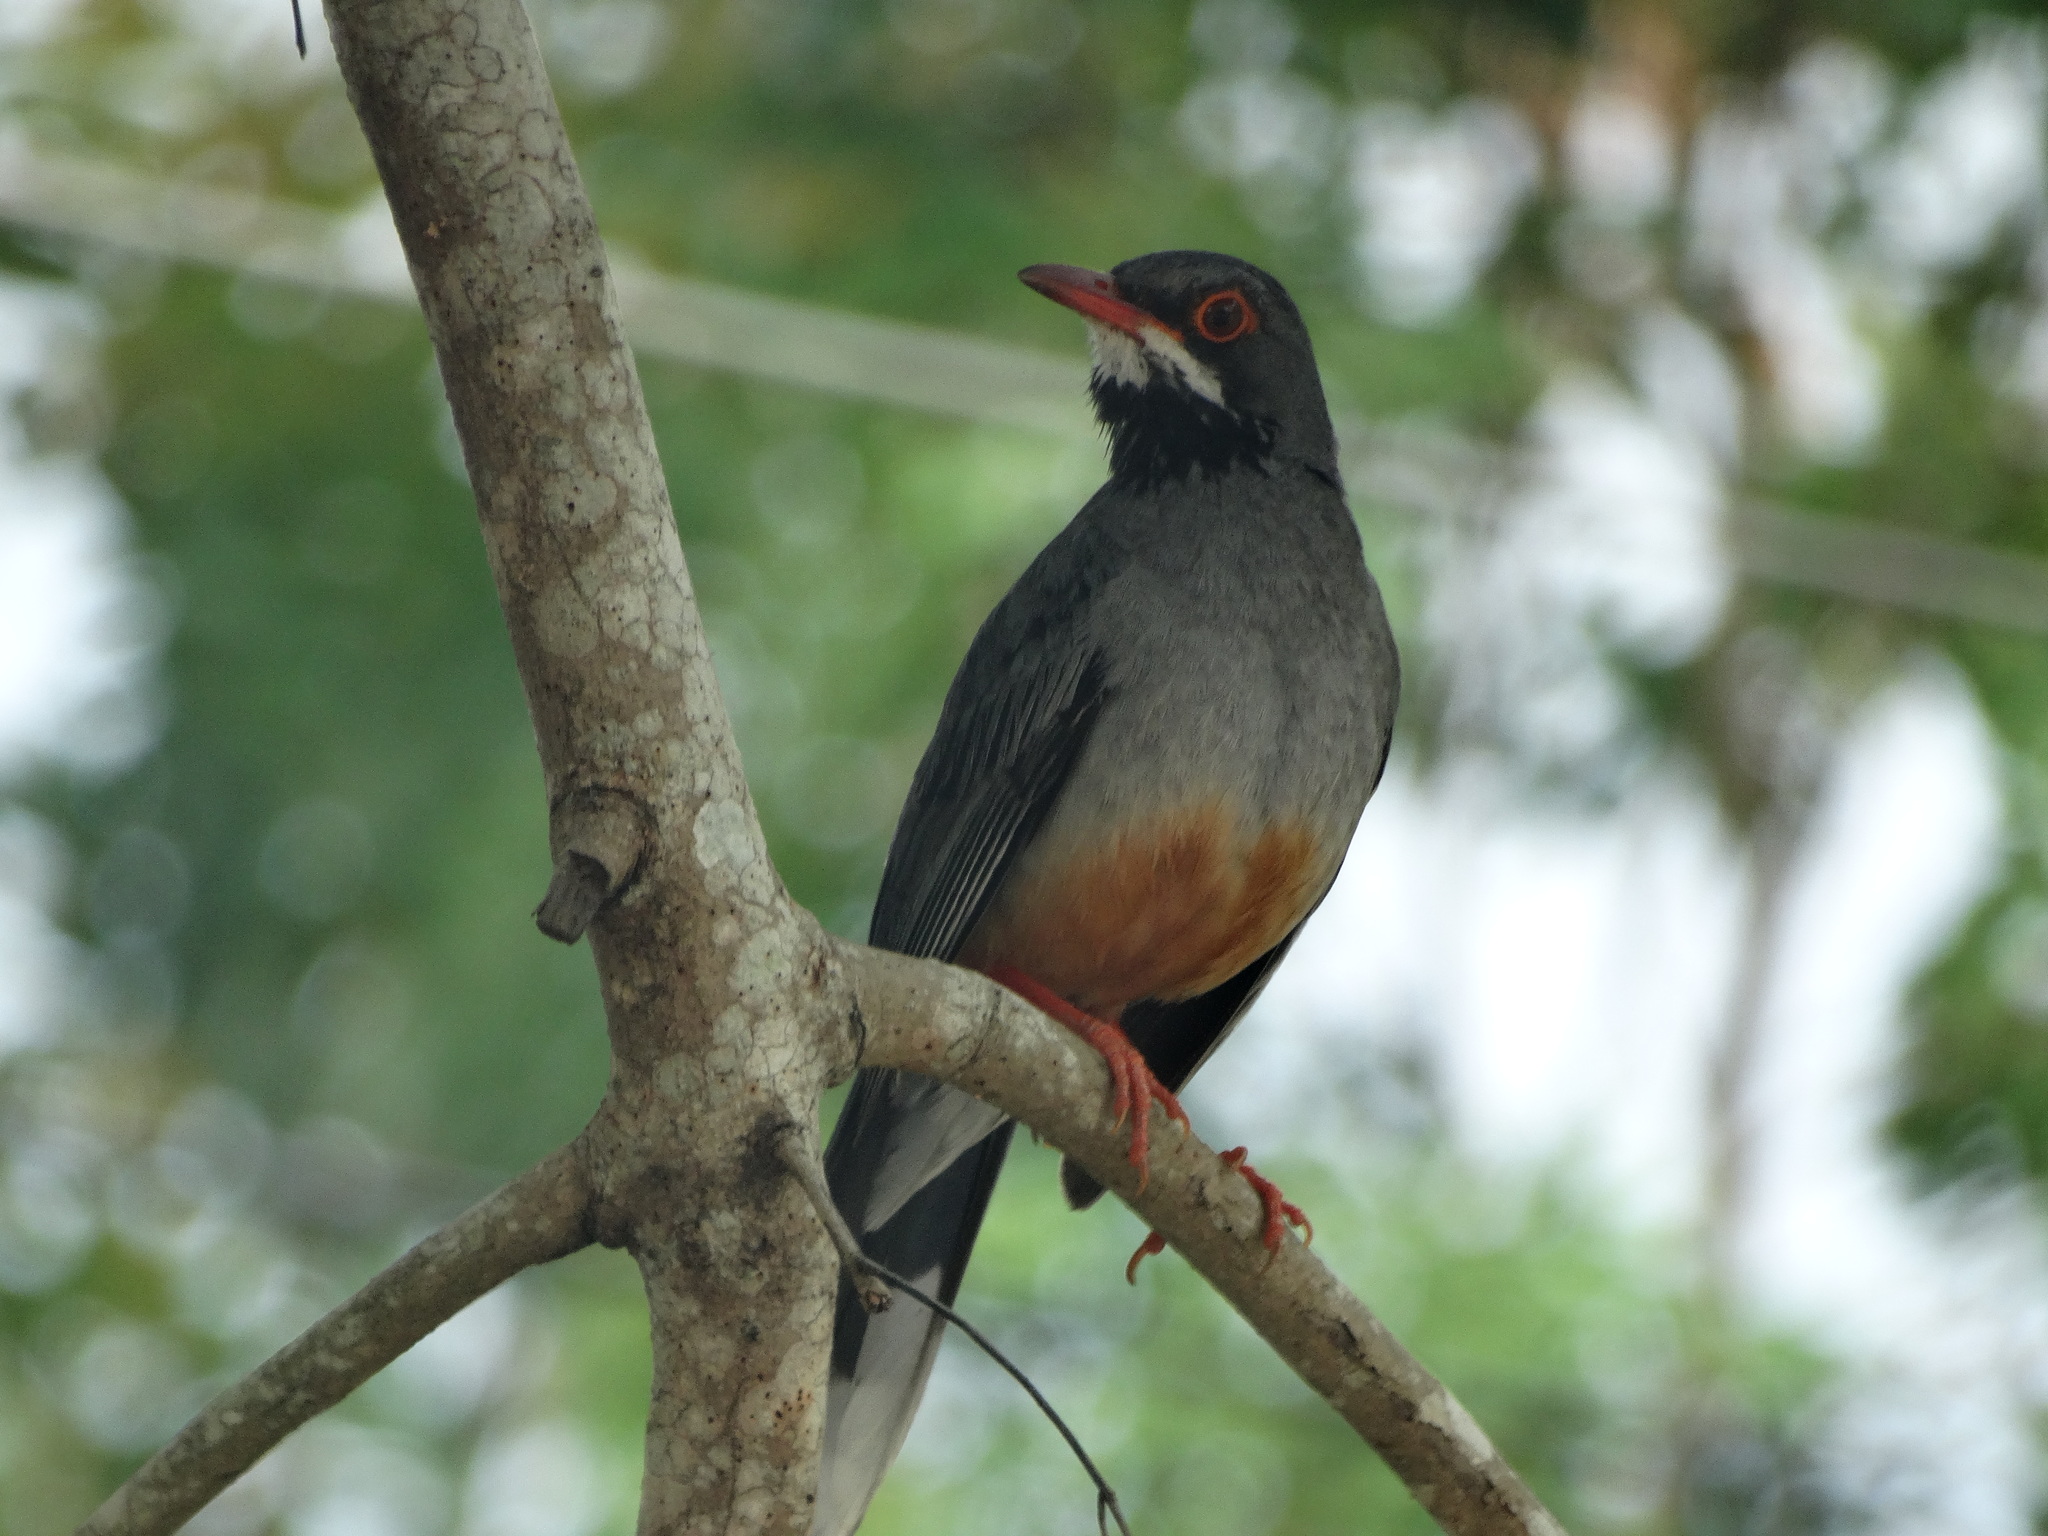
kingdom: Animalia
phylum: Chordata
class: Aves
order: Passeriformes
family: Turdidae
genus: Turdus
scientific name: Turdus plumbeus
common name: Red-legged thrush
